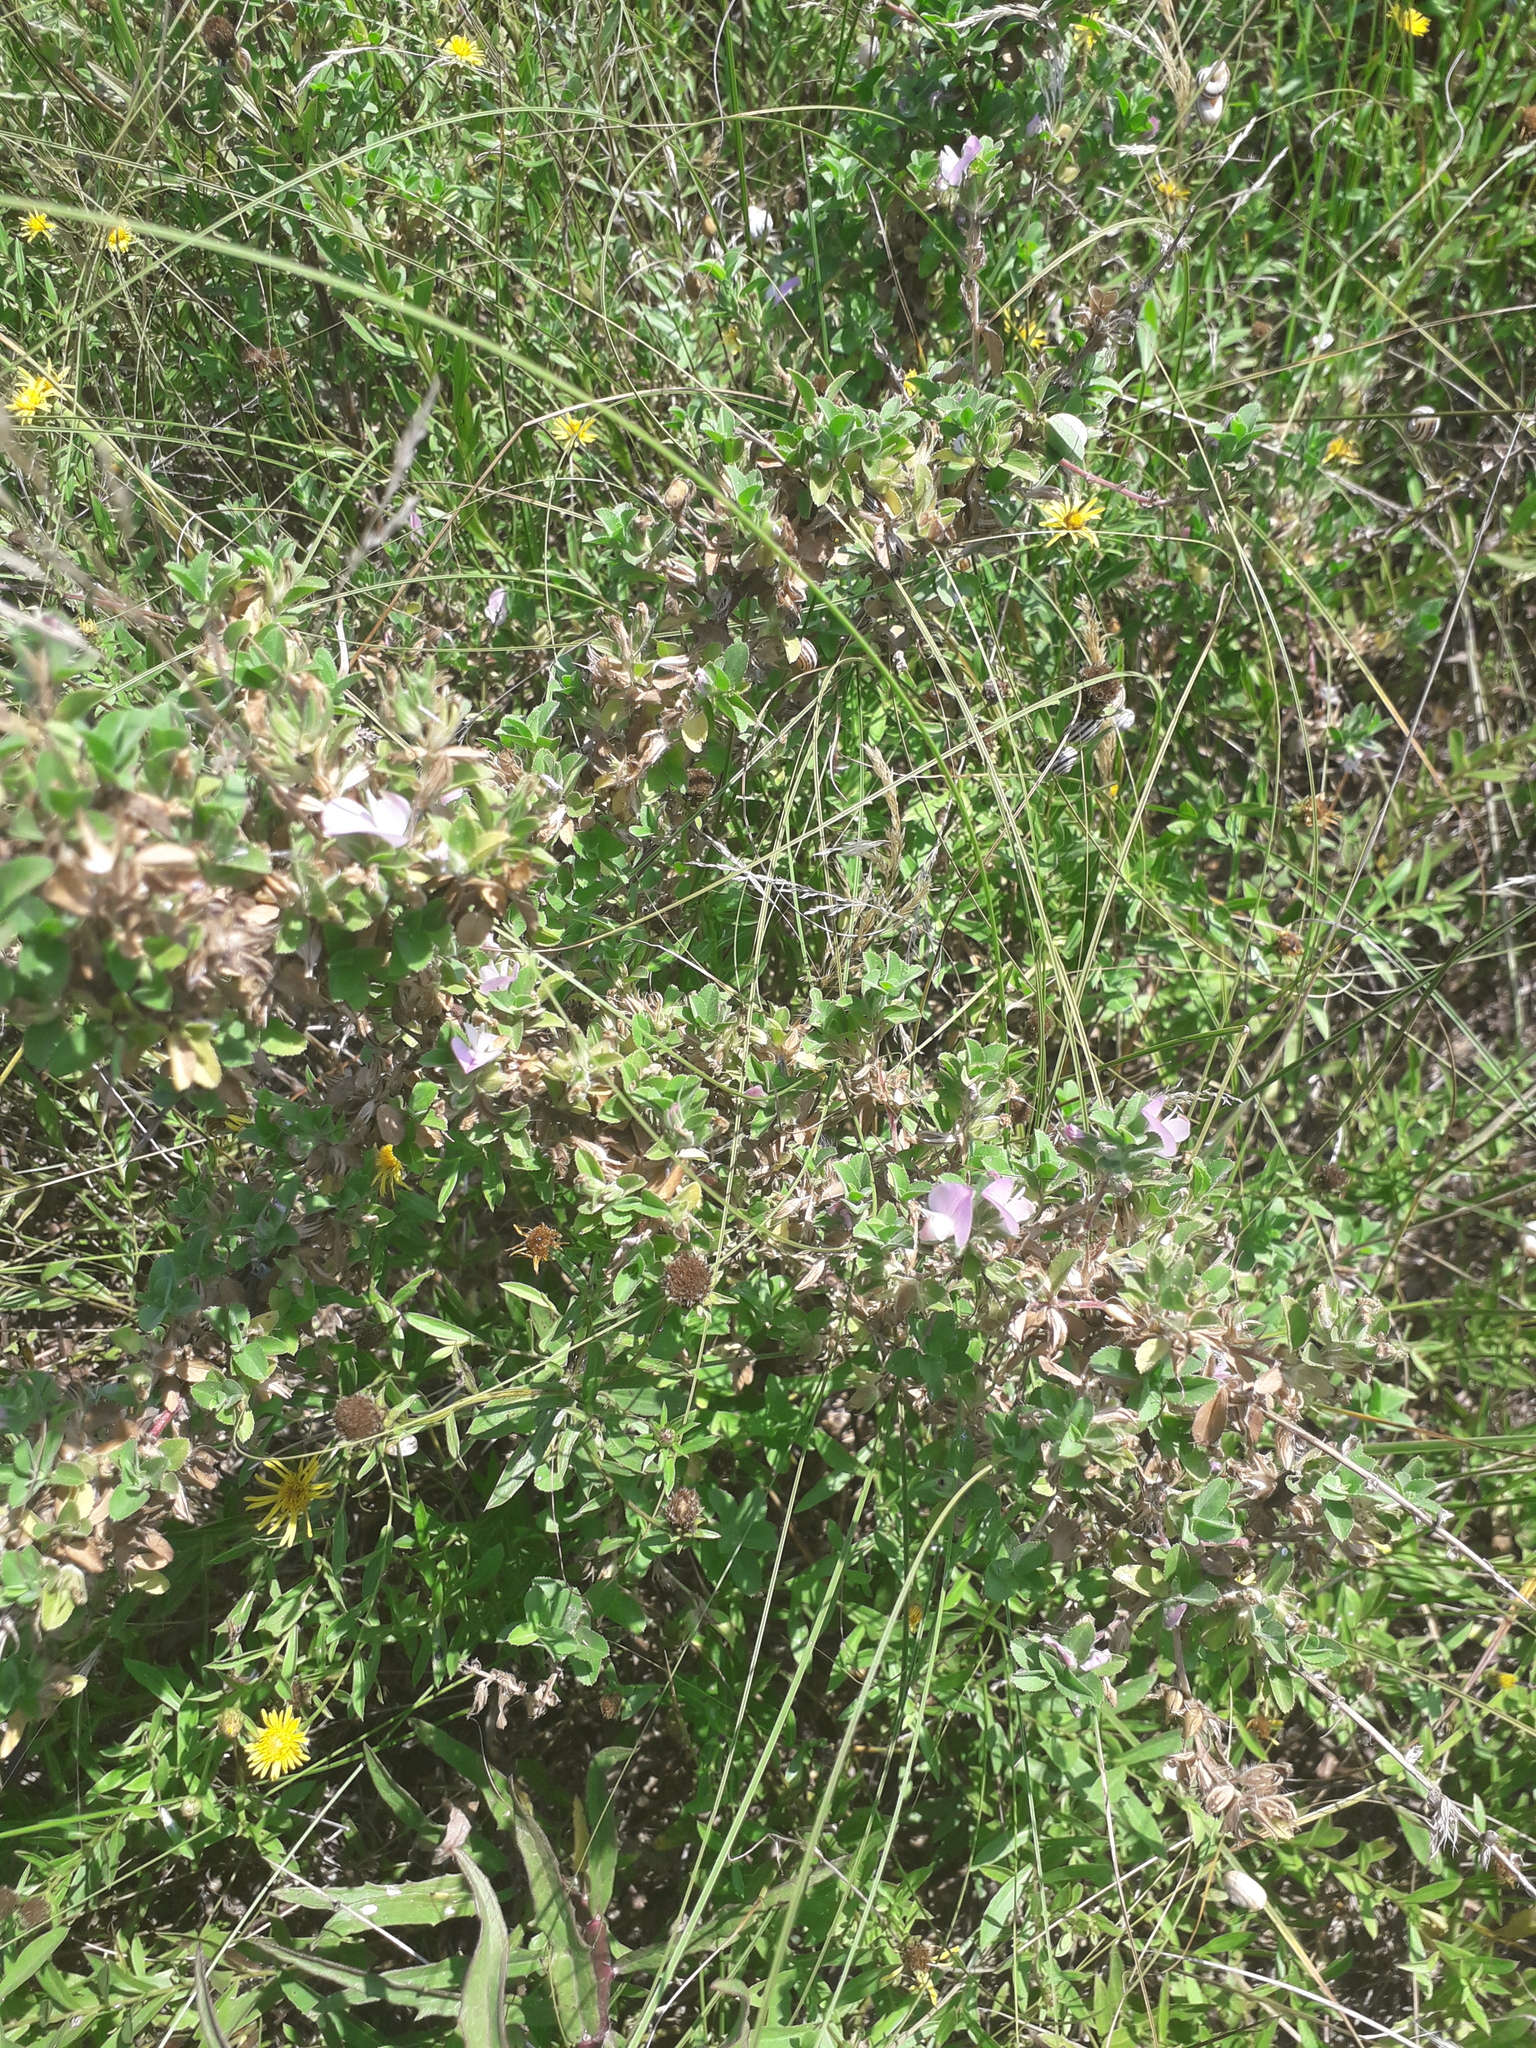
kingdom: Plantae
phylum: Tracheophyta
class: Magnoliopsida
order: Fabales
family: Fabaceae
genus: Ononis
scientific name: Ononis arvensis
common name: Field restharrow
